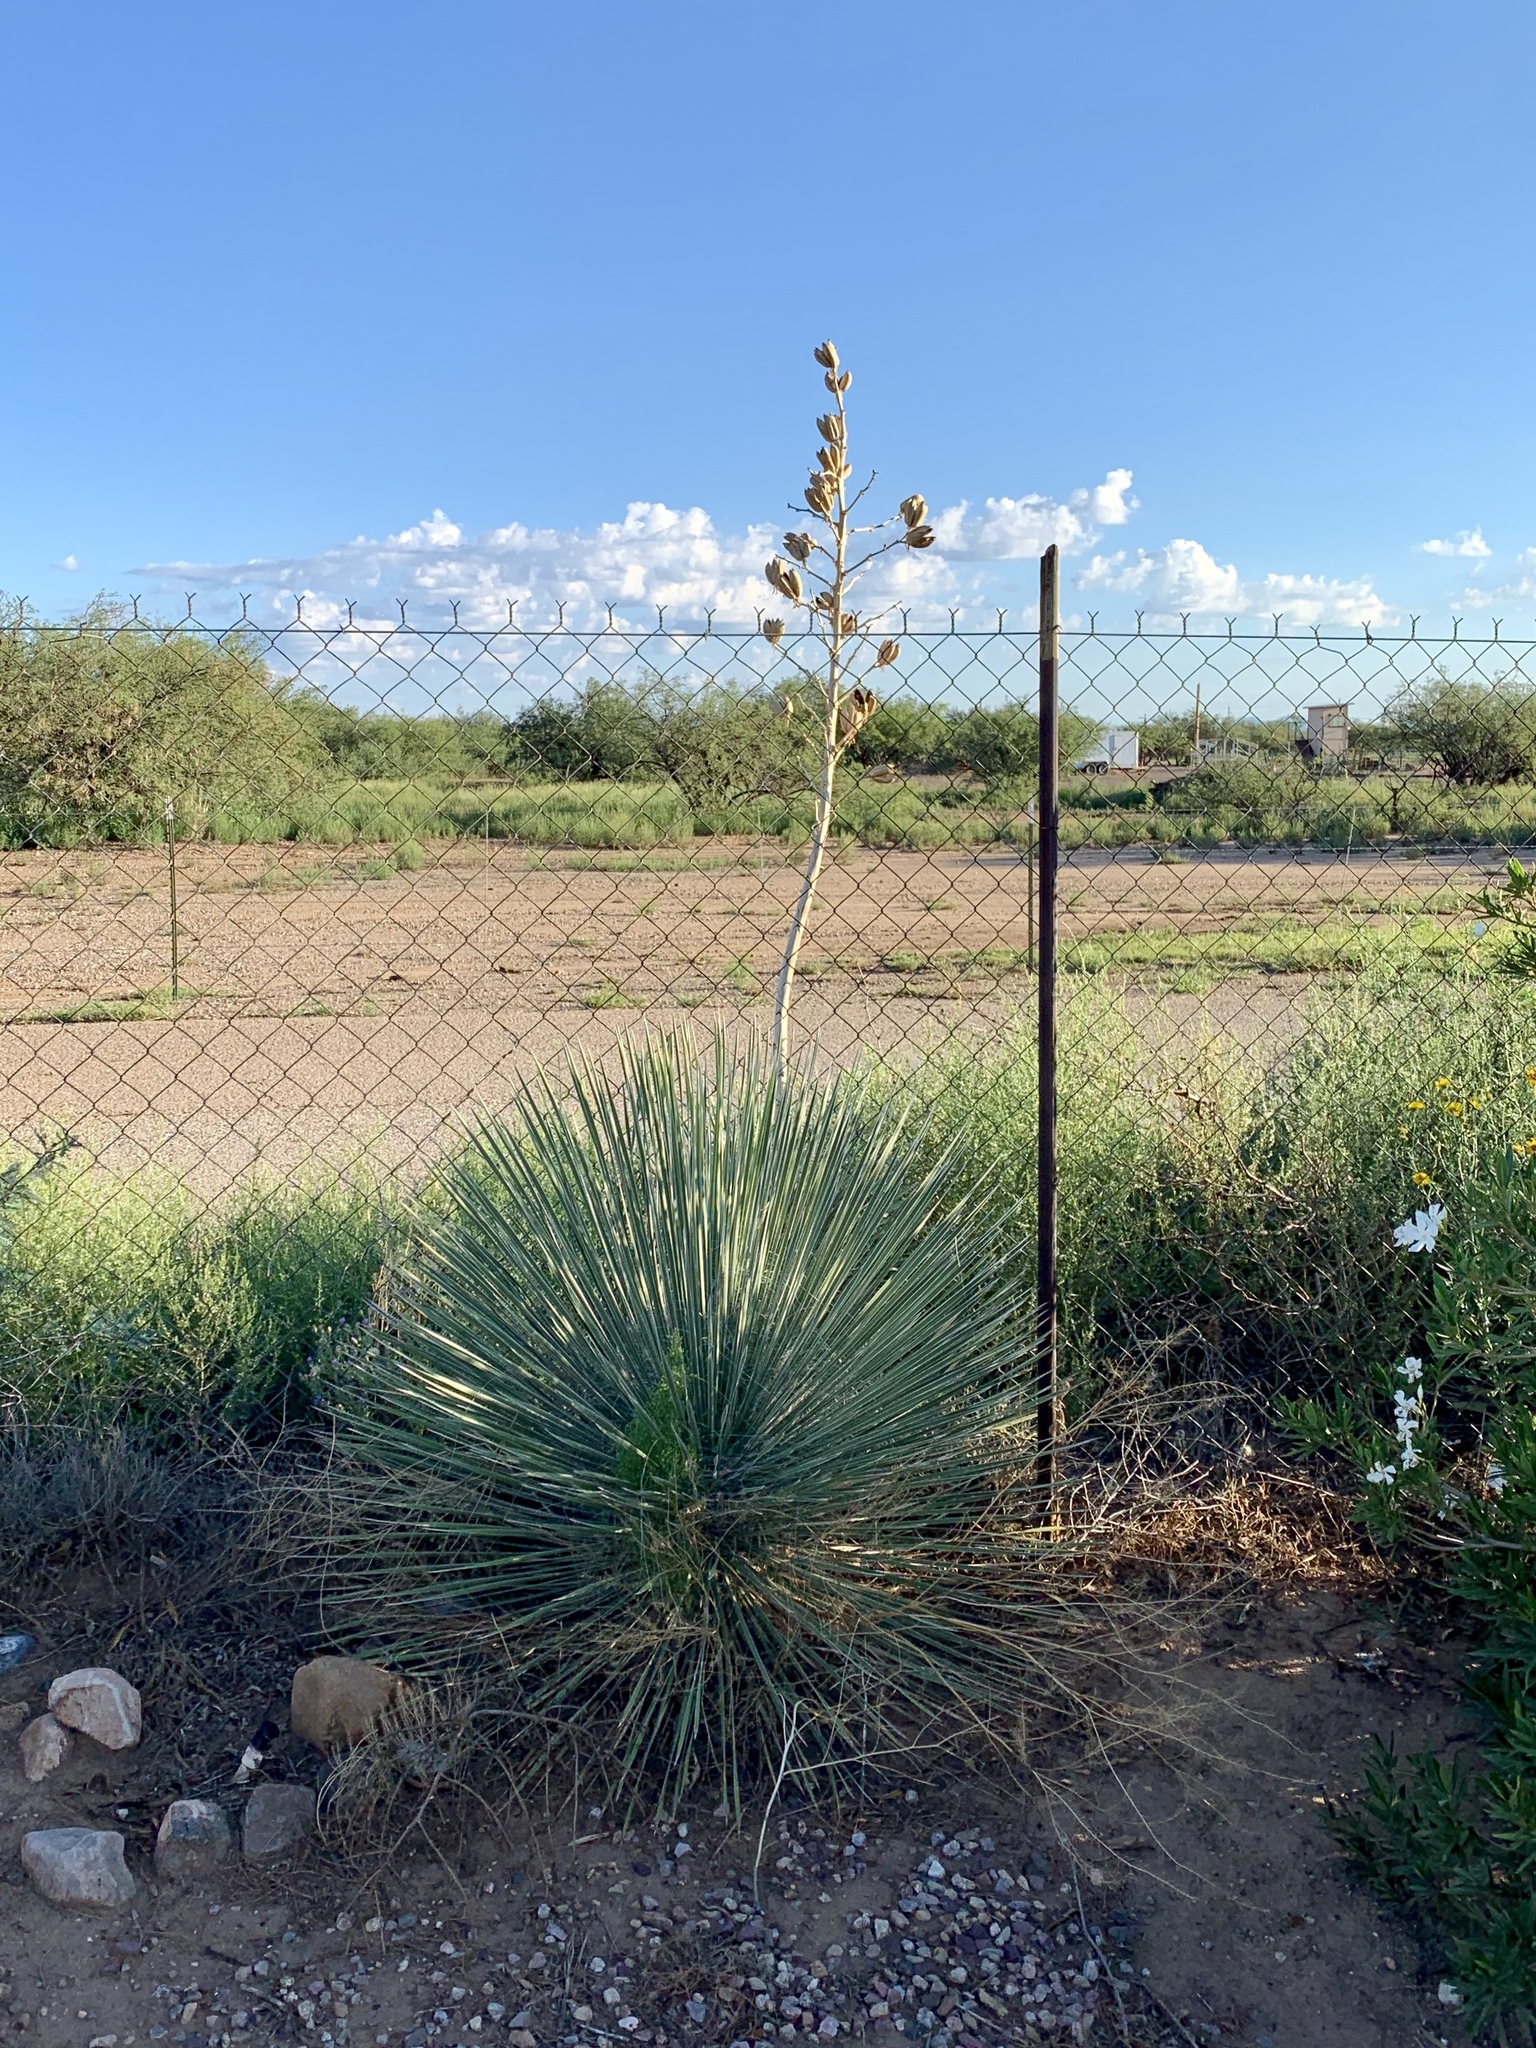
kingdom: Plantae
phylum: Tracheophyta
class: Liliopsida
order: Asparagales
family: Asparagaceae
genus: Yucca
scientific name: Yucca elata
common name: Palmella
